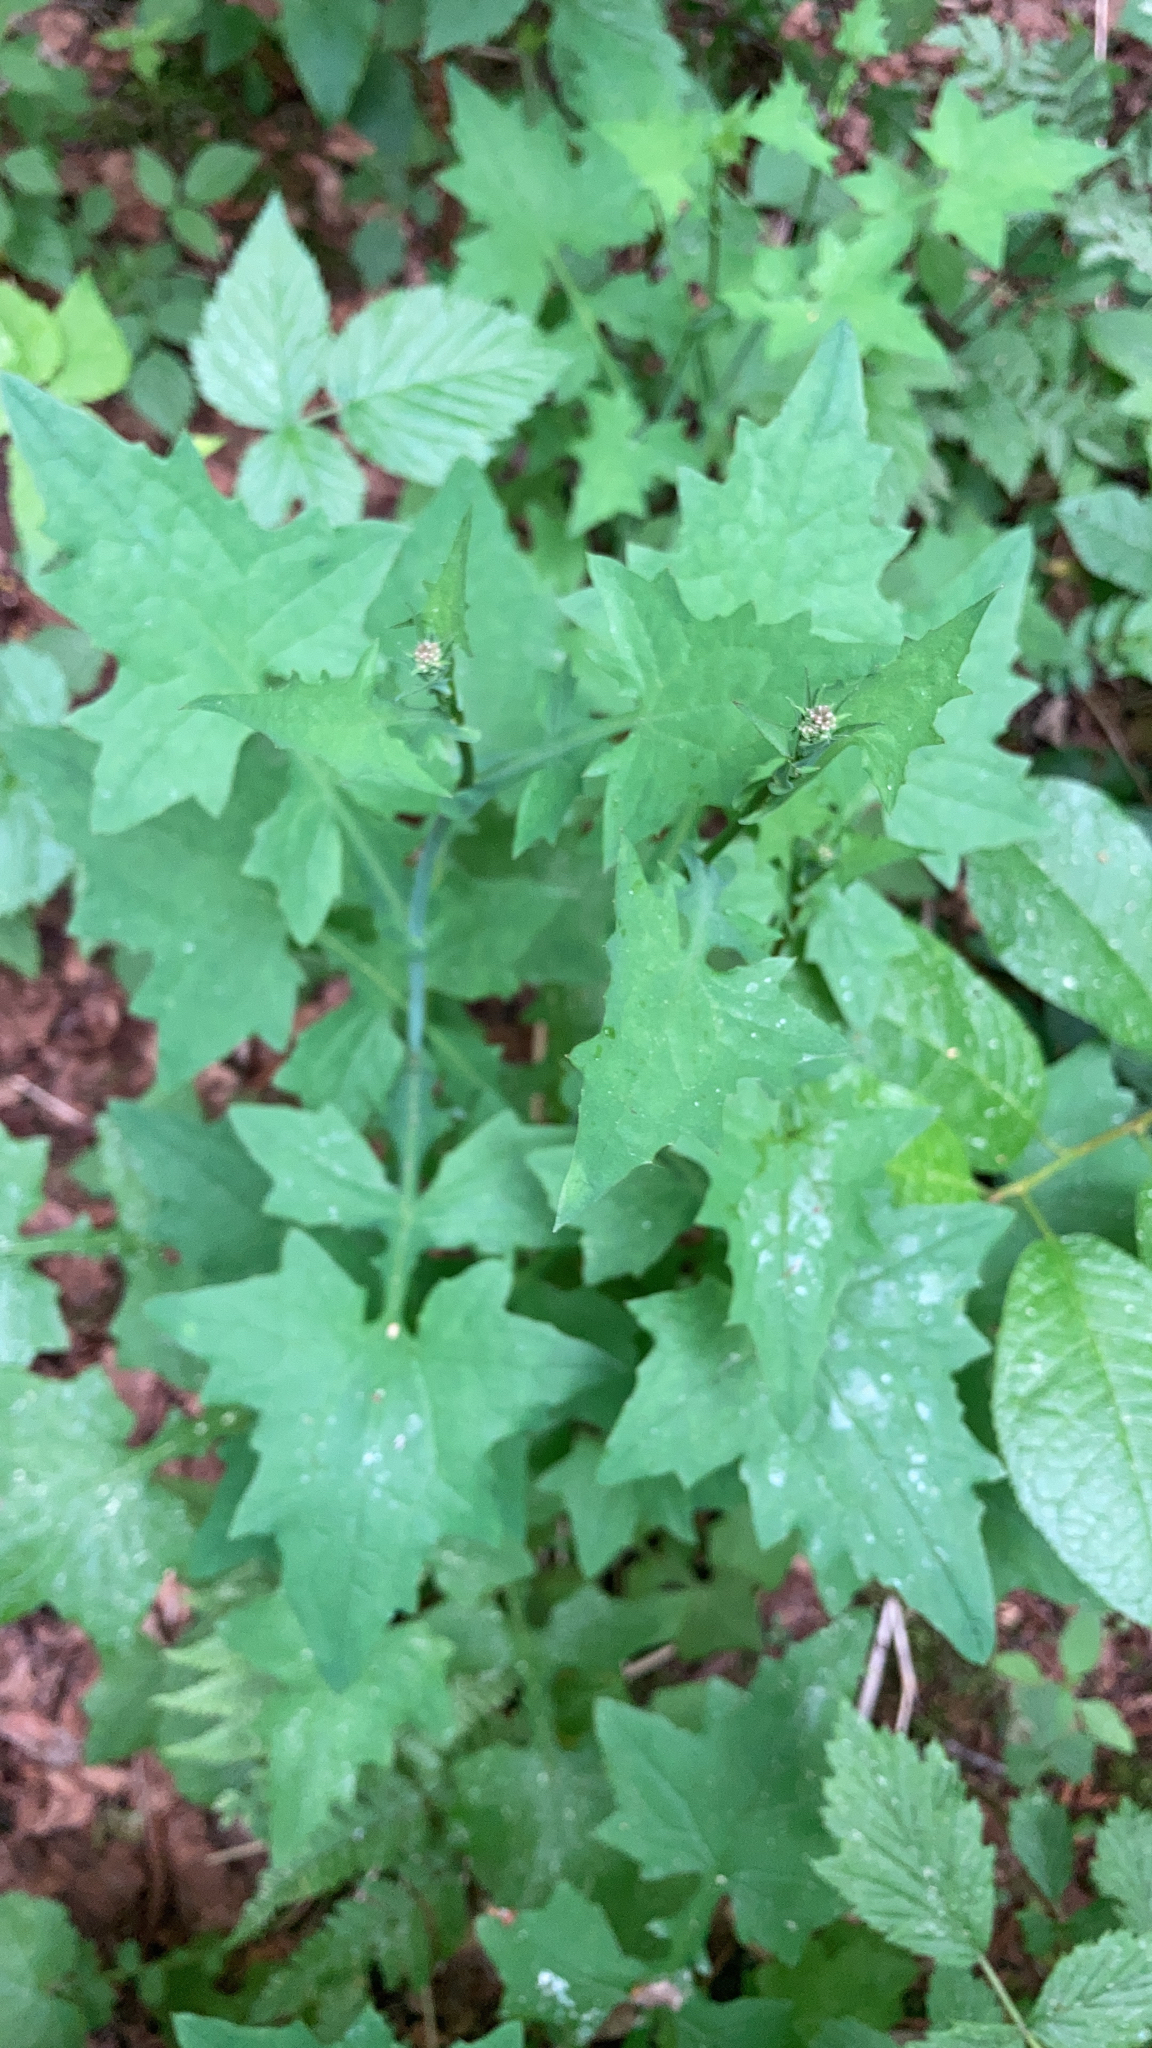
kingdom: Plantae
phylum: Tracheophyta
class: Magnoliopsida
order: Asterales
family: Asteraceae
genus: Mycelis
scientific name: Mycelis muralis
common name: Wall lettuce
